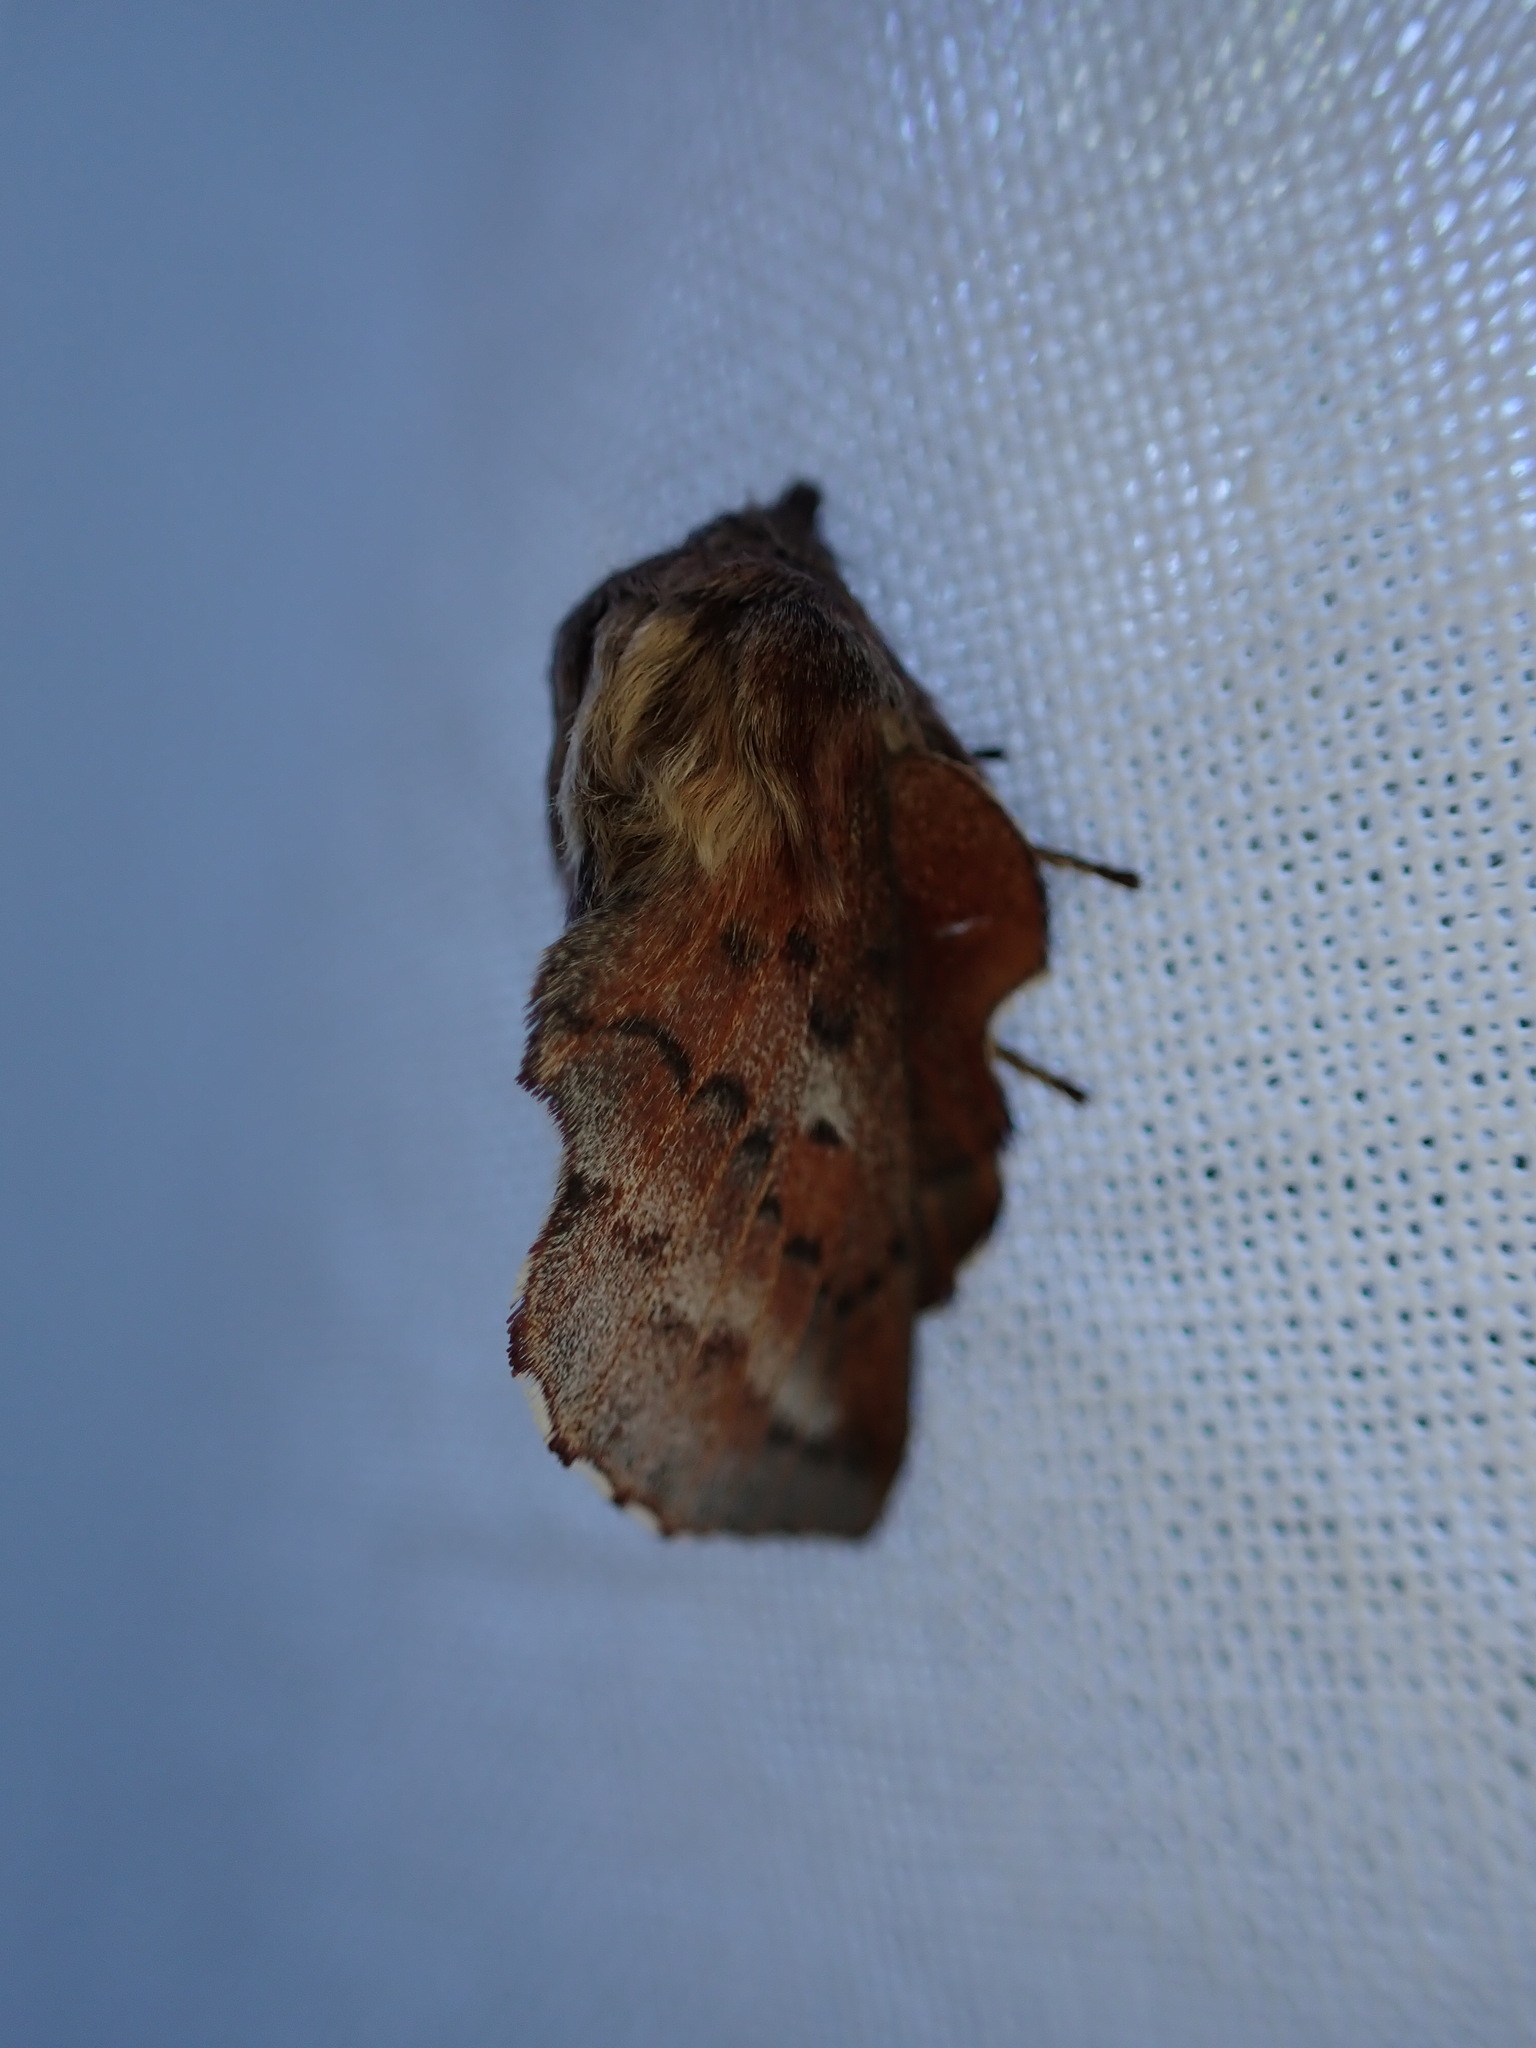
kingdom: Animalia
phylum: Arthropoda
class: Insecta
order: Lepidoptera
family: Lasiocampidae
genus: Phyllodesma
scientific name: Phyllodesma americana
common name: American lappet moth
